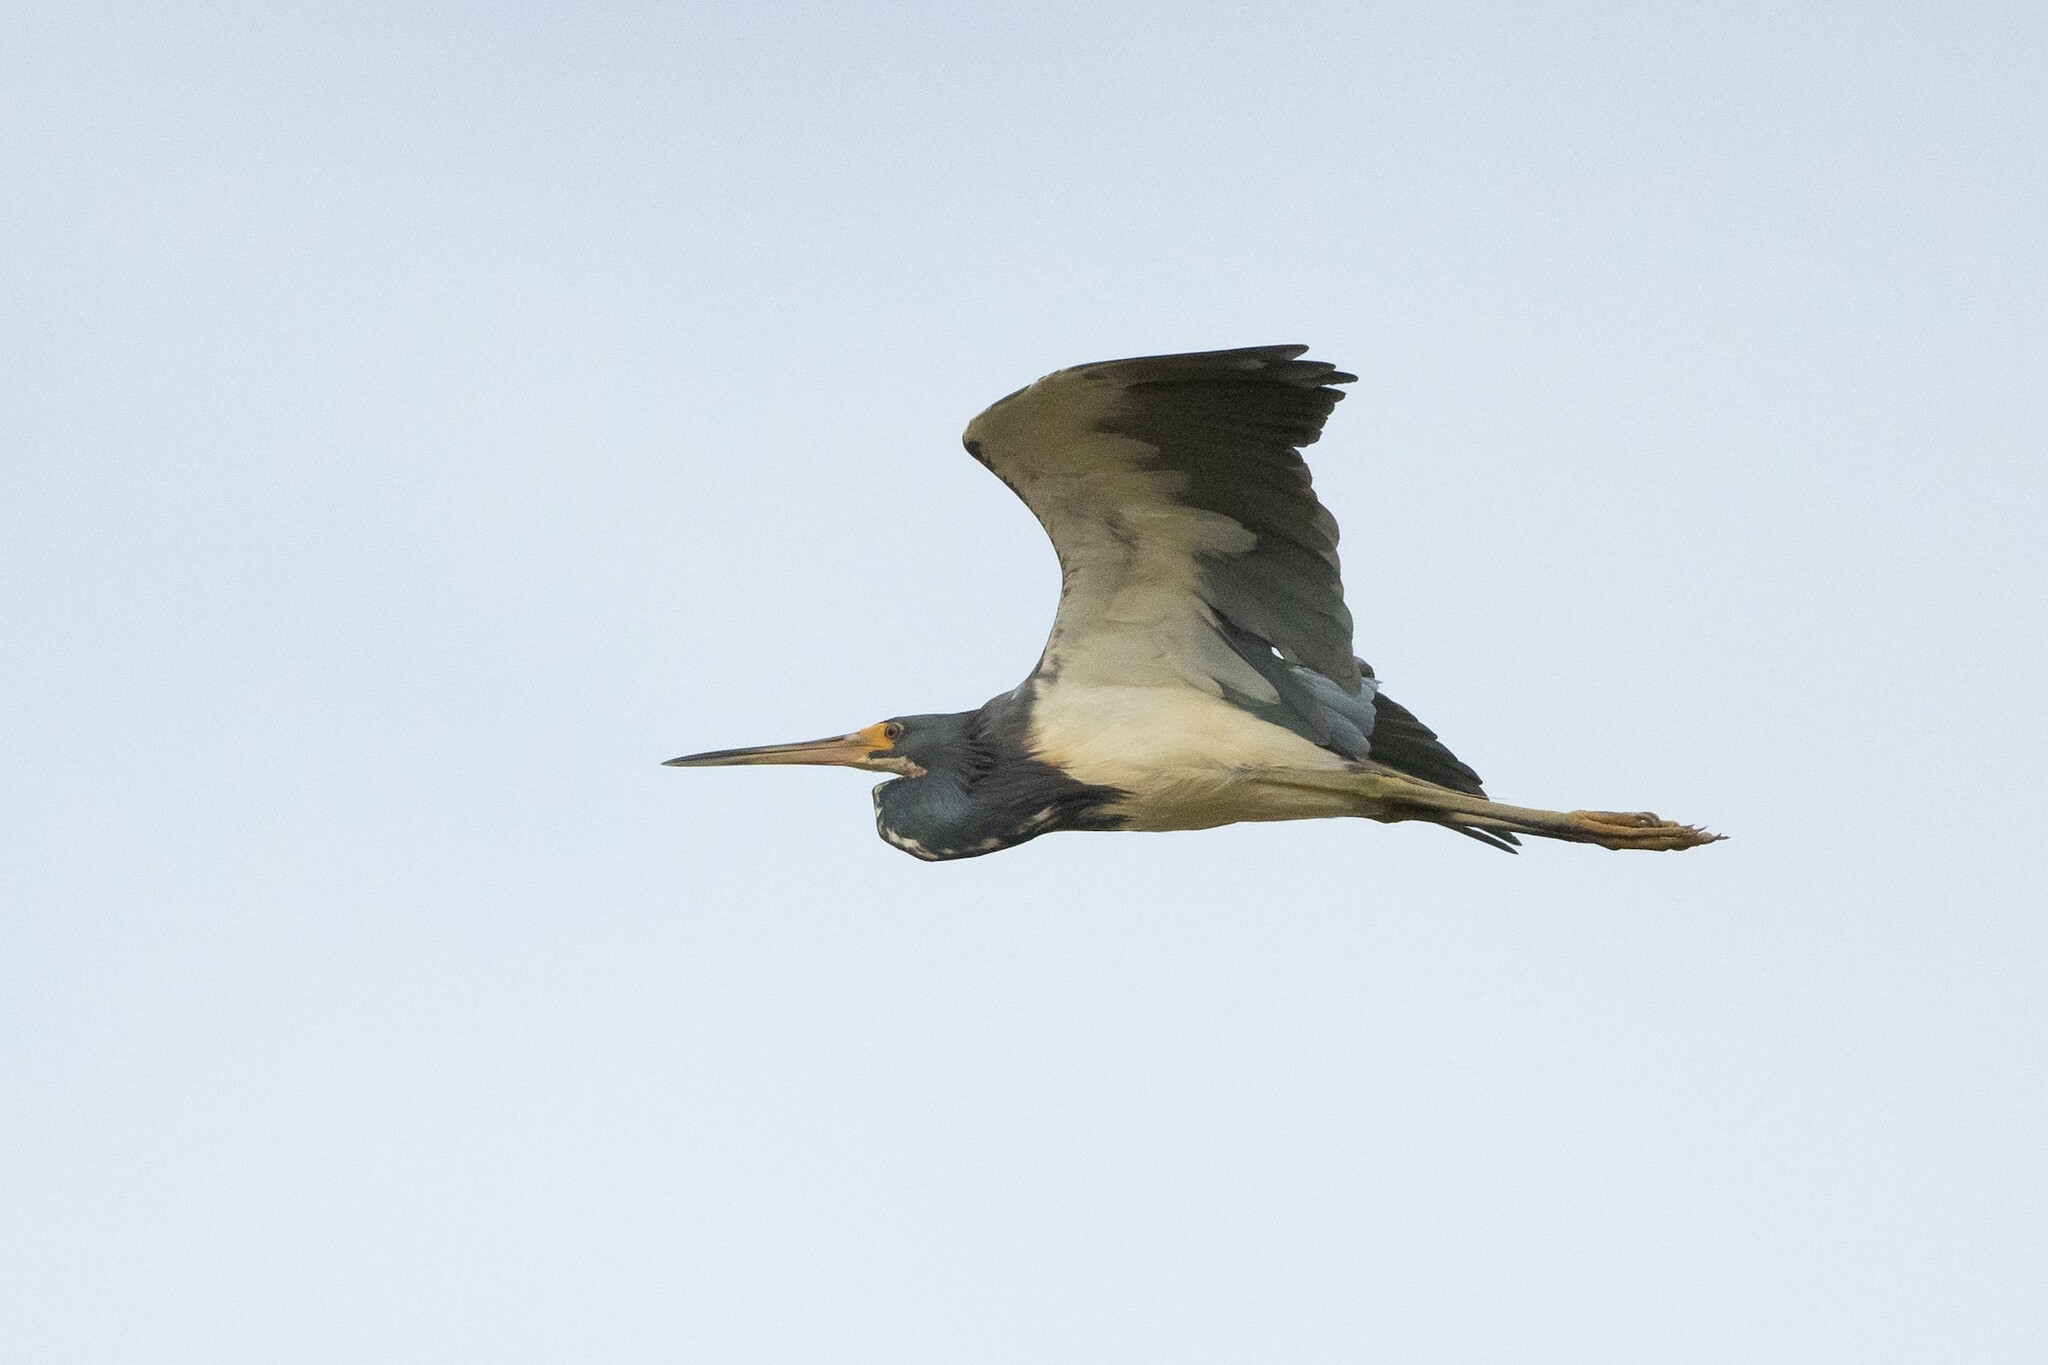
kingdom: Animalia
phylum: Chordata
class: Aves
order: Pelecaniformes
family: Ardeidae
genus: Egretta
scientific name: Egretta tricolor
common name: Tricolored heron
